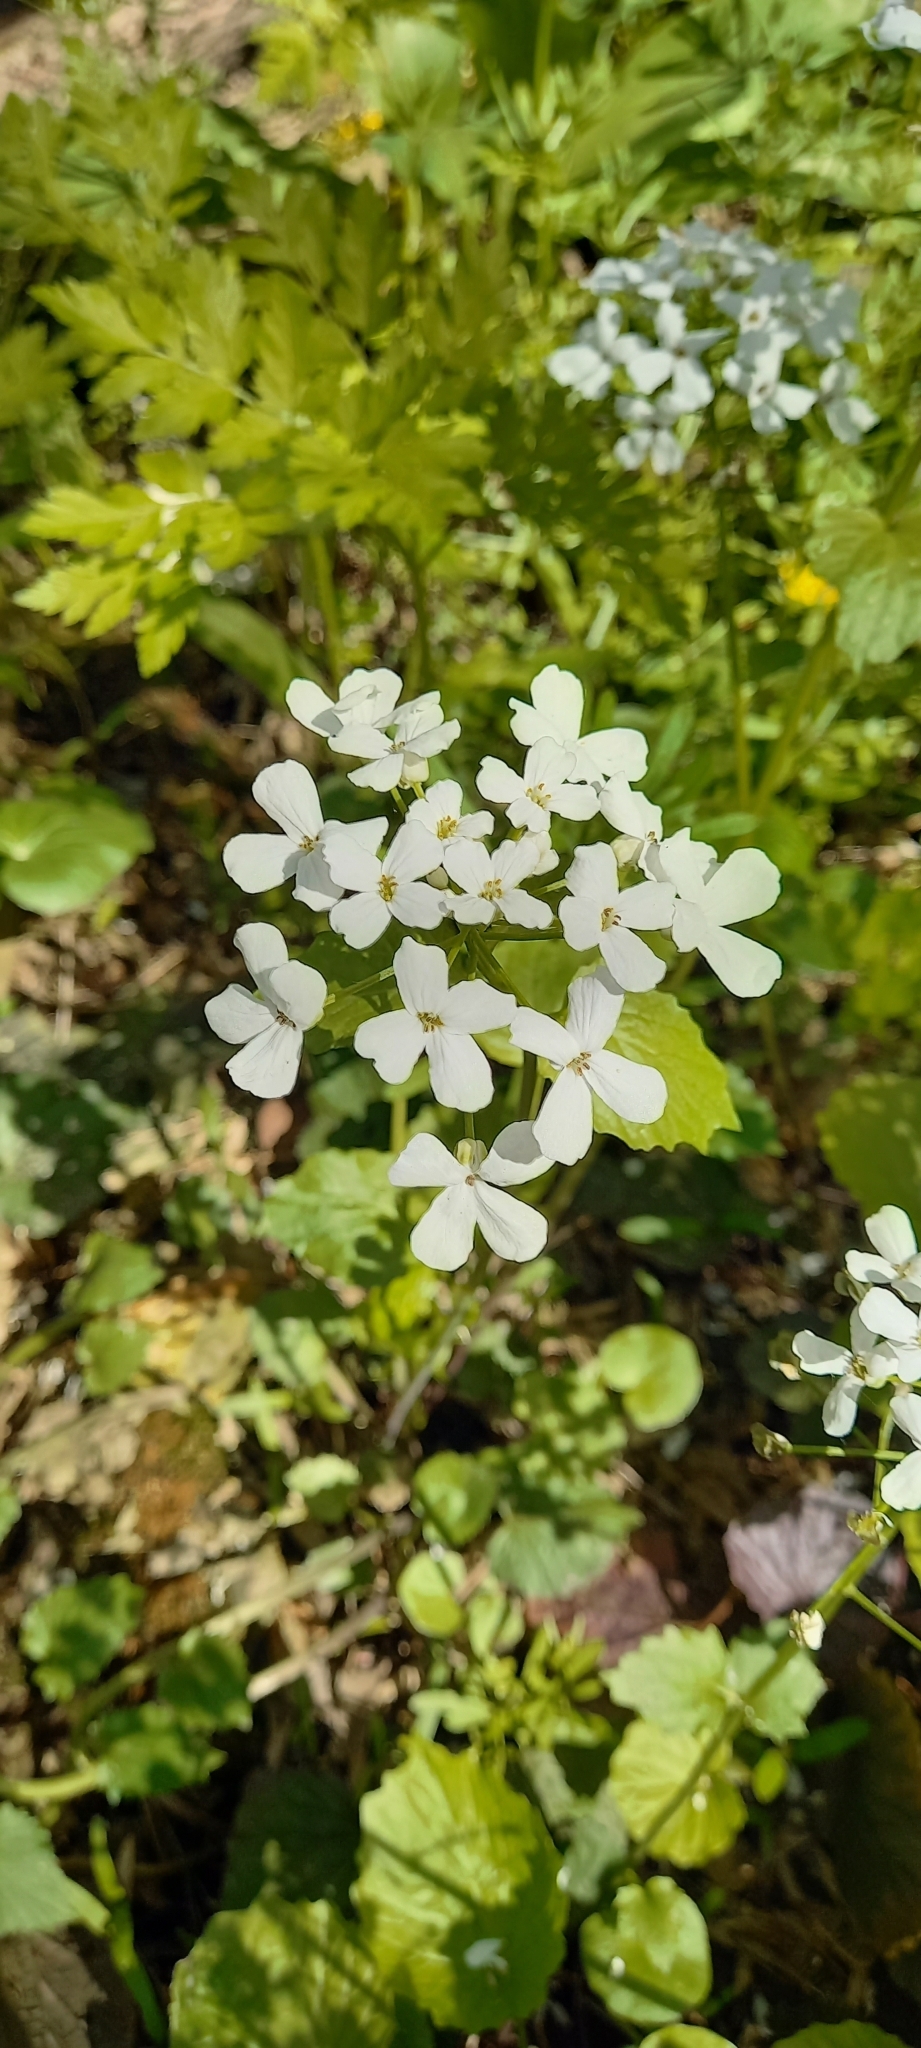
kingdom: Plantae
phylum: Tracheophyta
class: Magnoliopsida
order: Brassicales
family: Brassicaceae
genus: Alliaria
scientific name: Alliaria petiolata
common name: Garlic mustard
